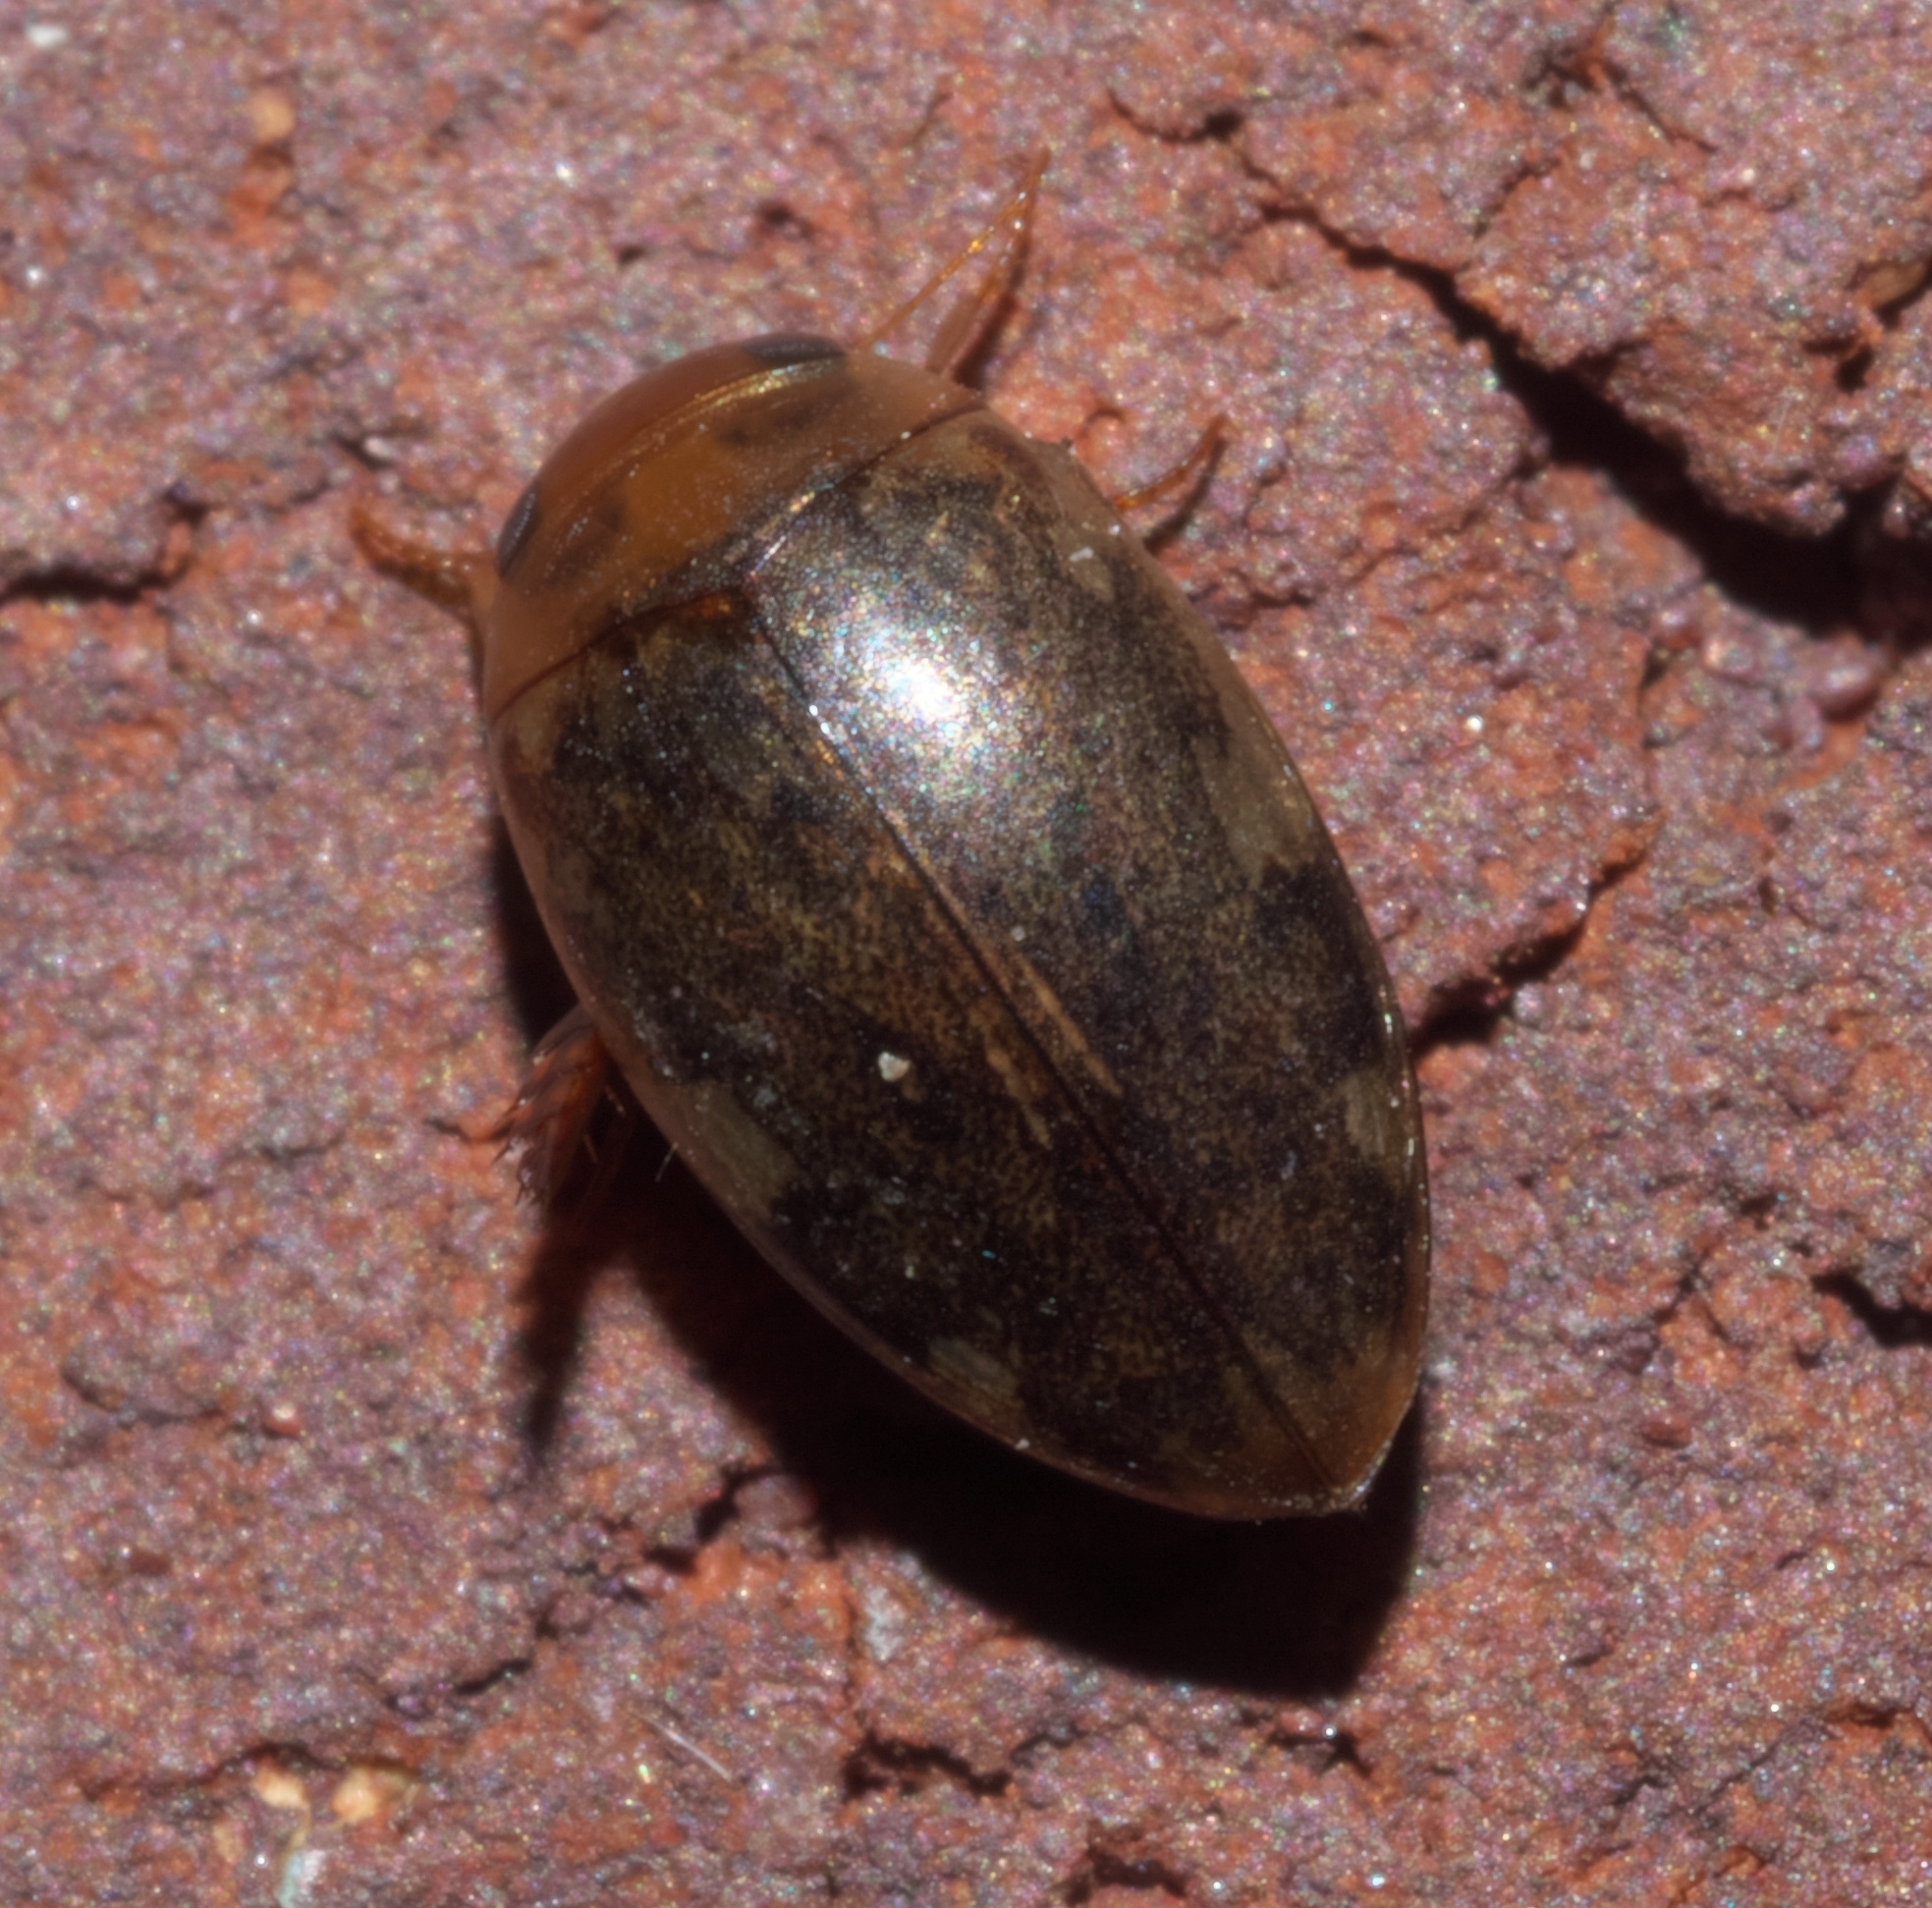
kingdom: Animalia
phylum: Arthropoda
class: Insecta
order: Coleoptera
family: Dytiscidae
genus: Laccophilus
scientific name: Laccophilus proximus
